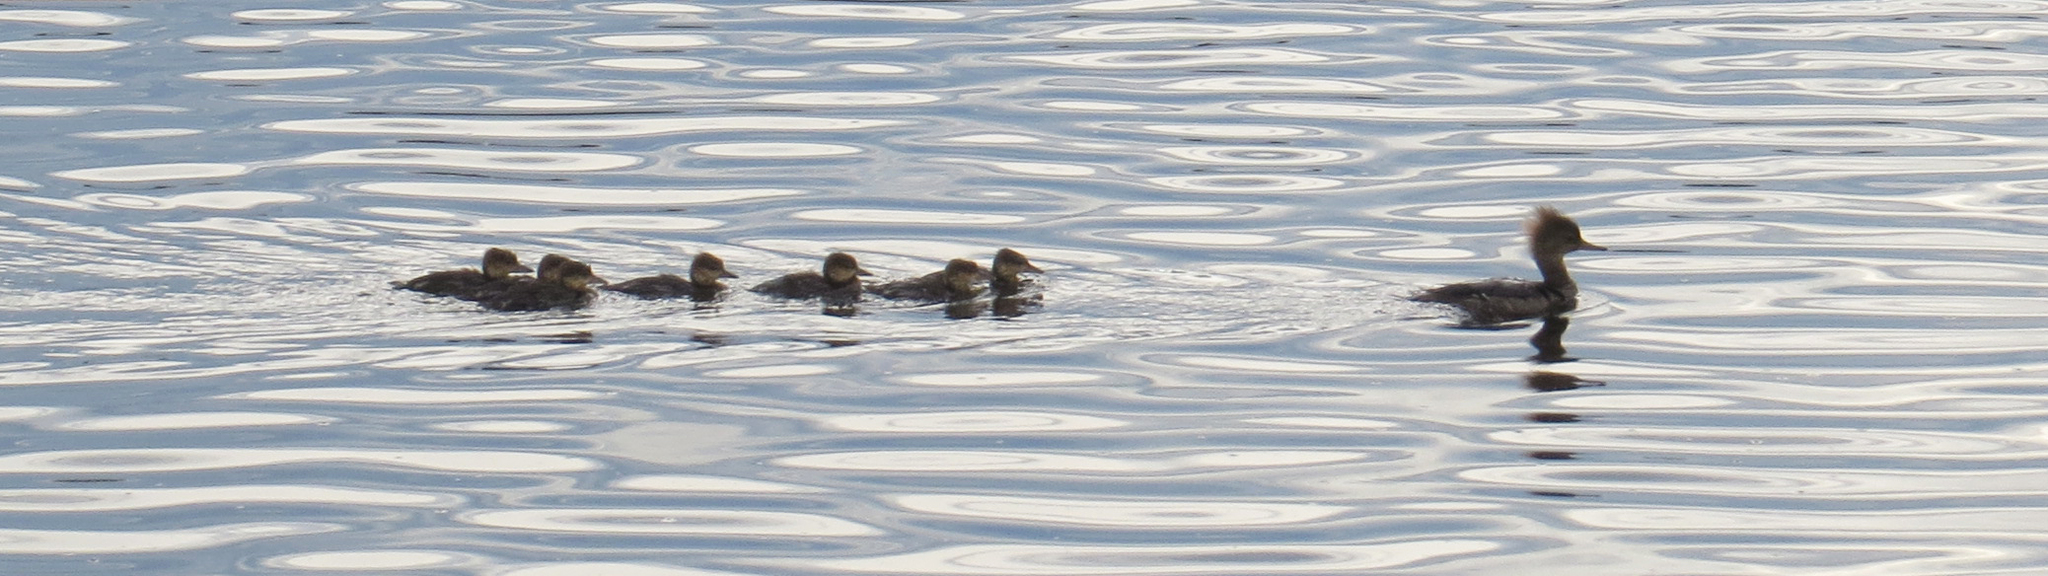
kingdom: Animalia
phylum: Chordata
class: Aves
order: Anseriformes
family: Anatidae
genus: Lophodytes
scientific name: Lophodytes cucullatus
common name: Hooded merganser
